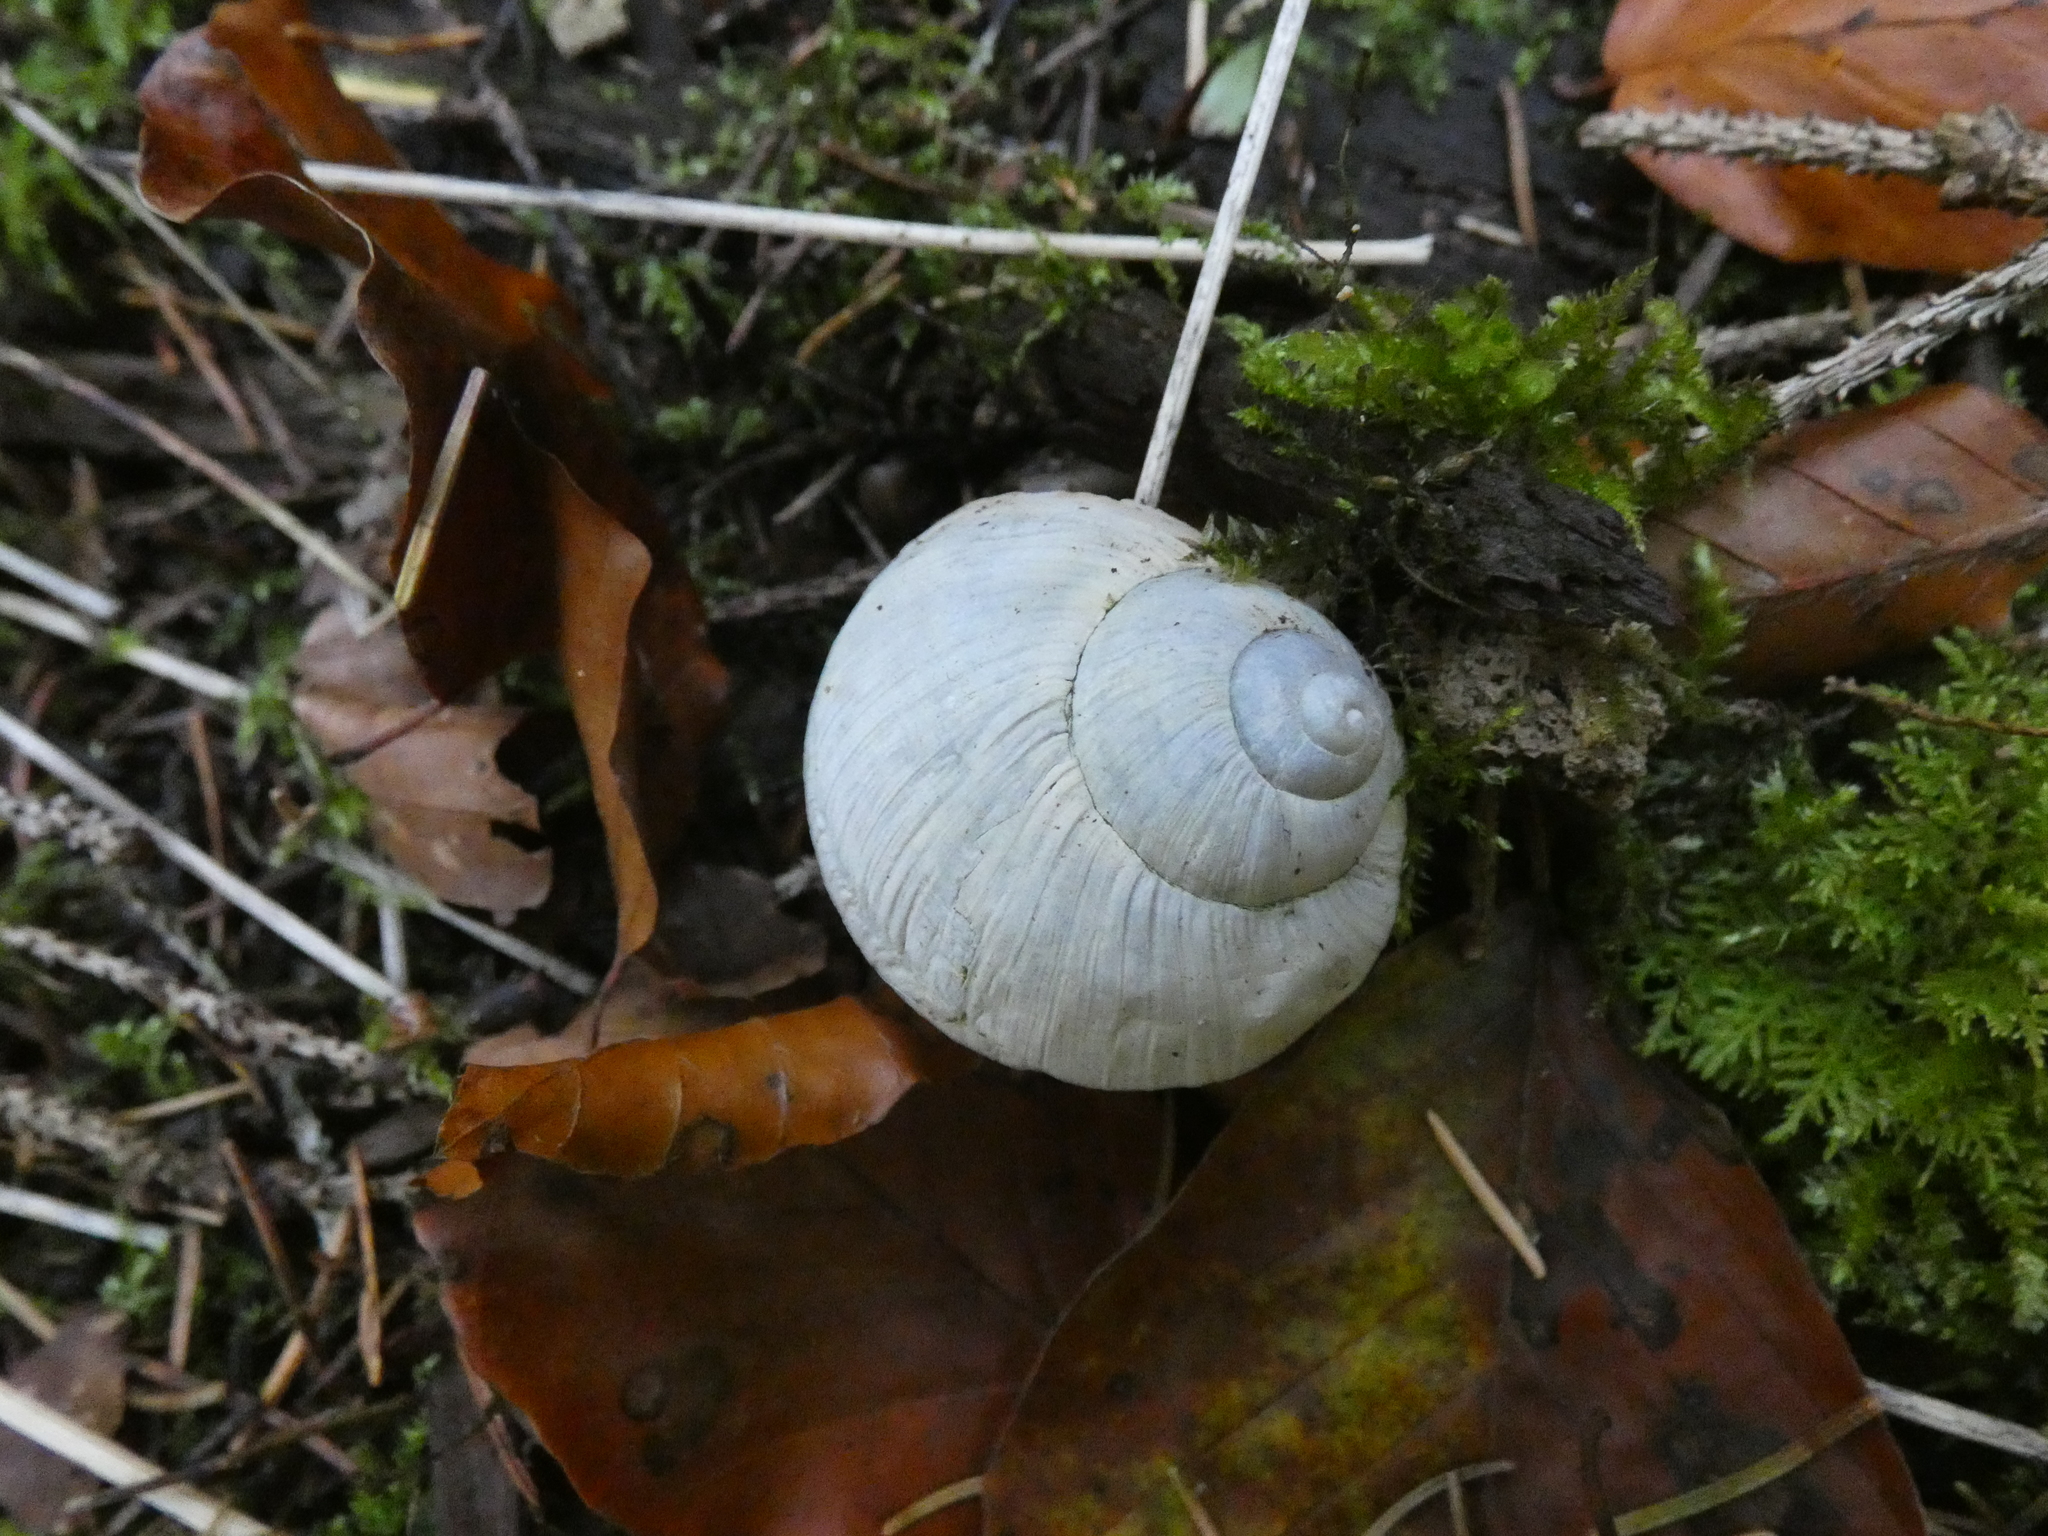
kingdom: Animalia
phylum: Mollusca
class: Gastropoda
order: Stylommatophora
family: Helicidae
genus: Helix
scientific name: Helix pomatia
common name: Roman snail
